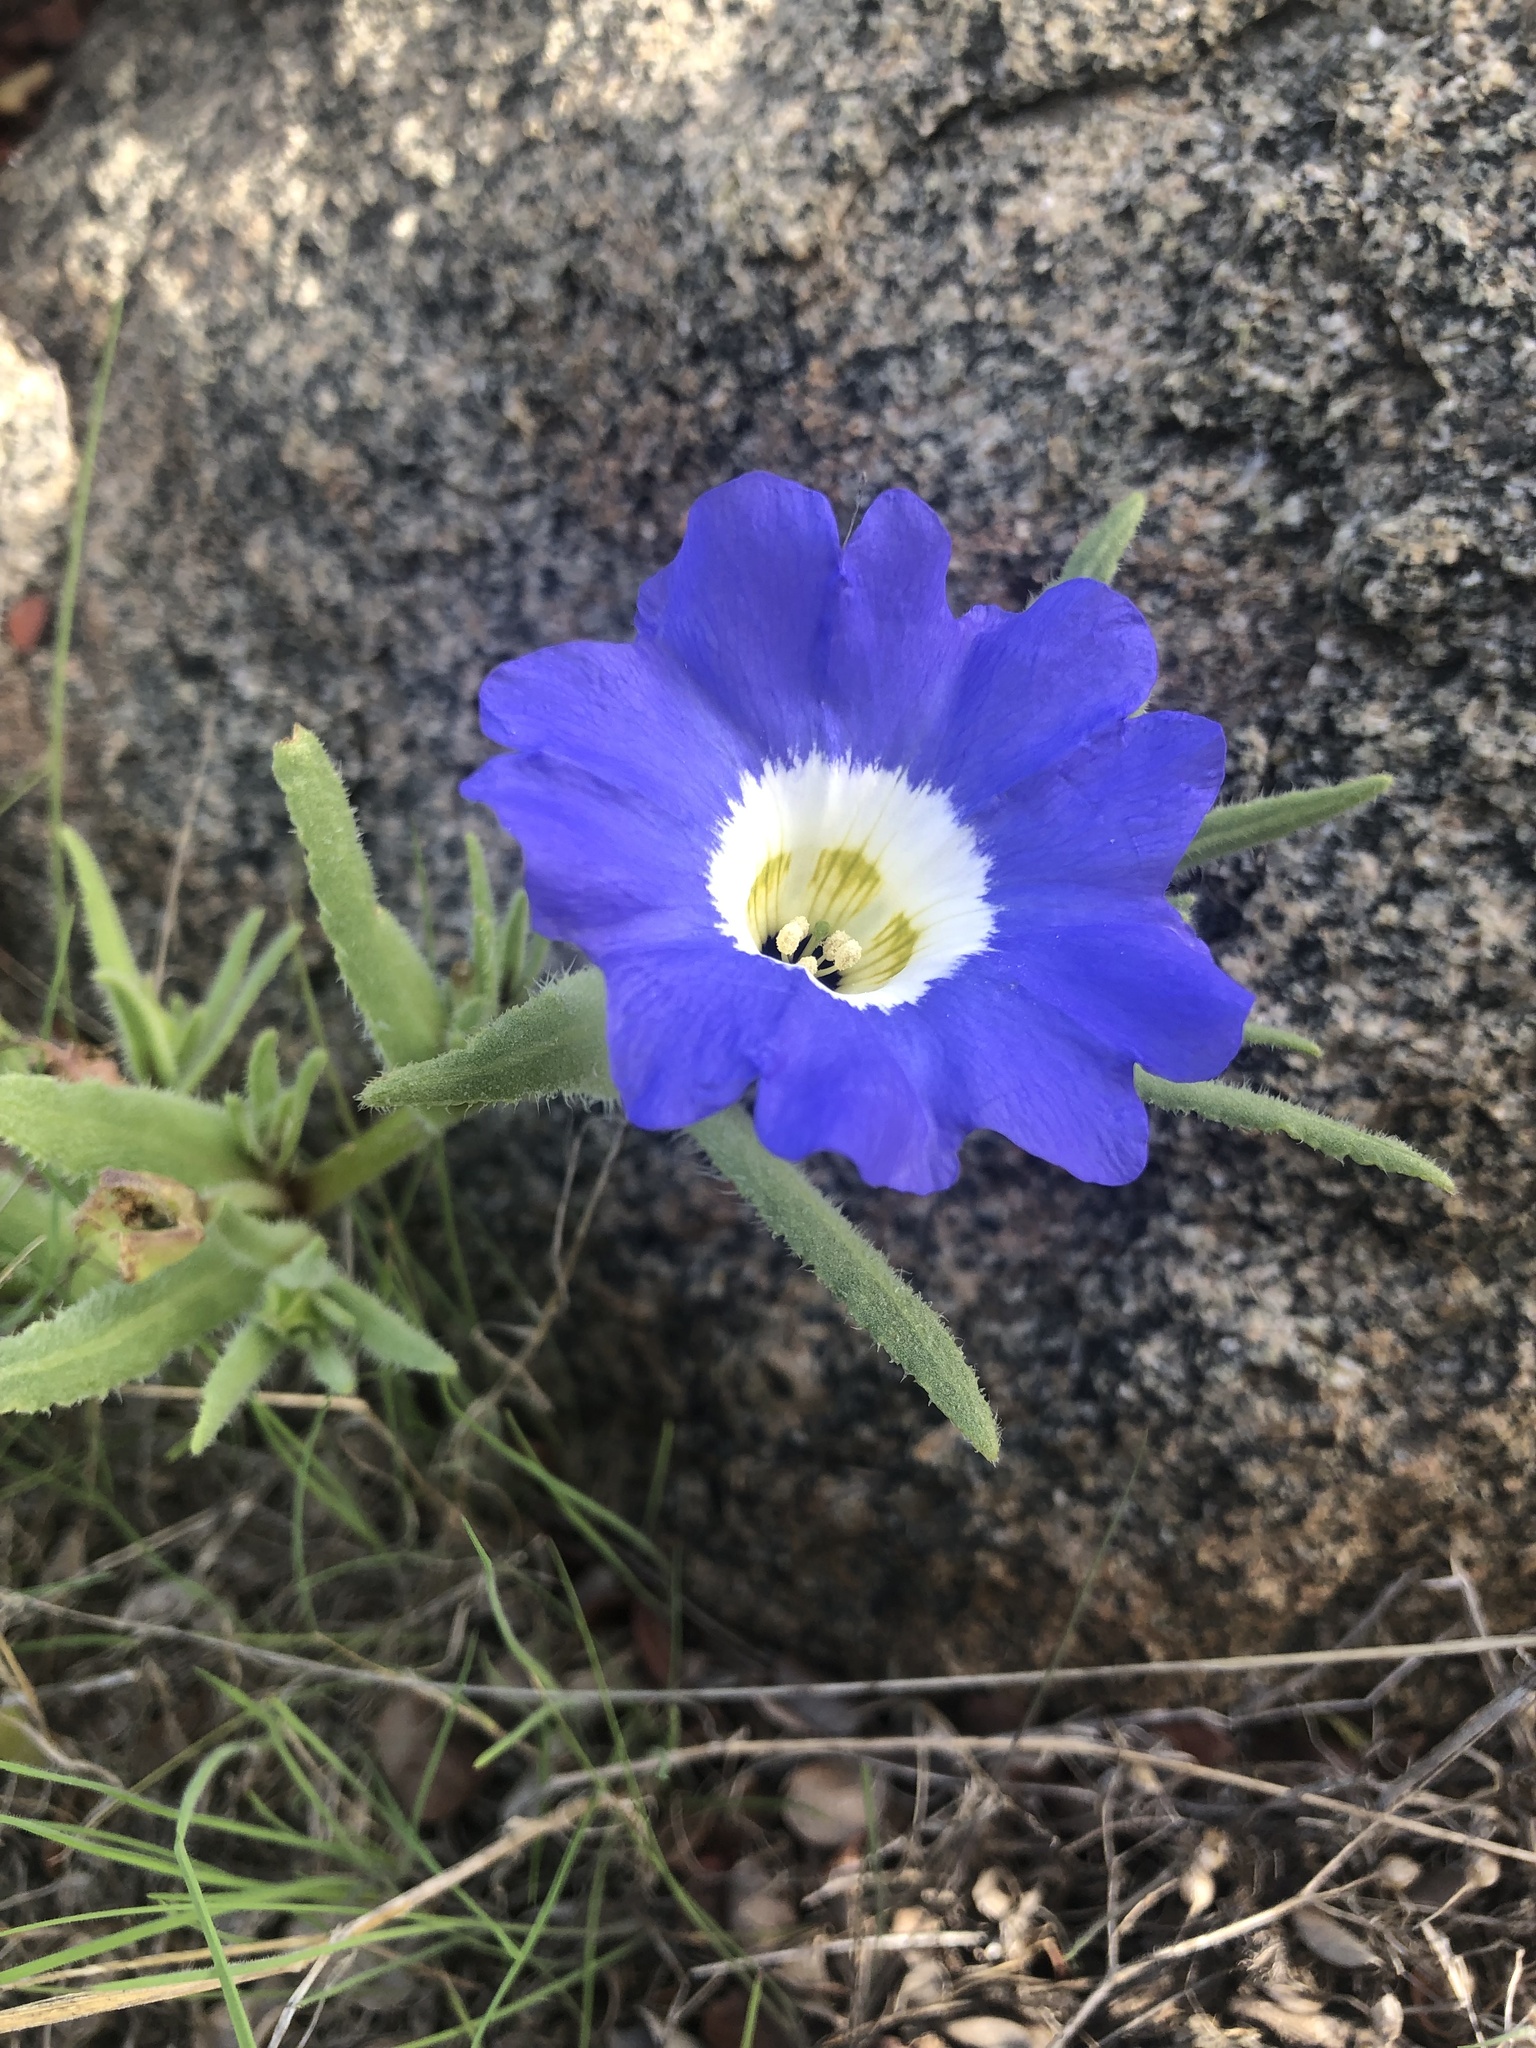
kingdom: Plantae
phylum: Tracheophyta
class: Magnoliopsida
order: Solanales
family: Solanaceae
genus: Nolana
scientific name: Nolana acuminata
